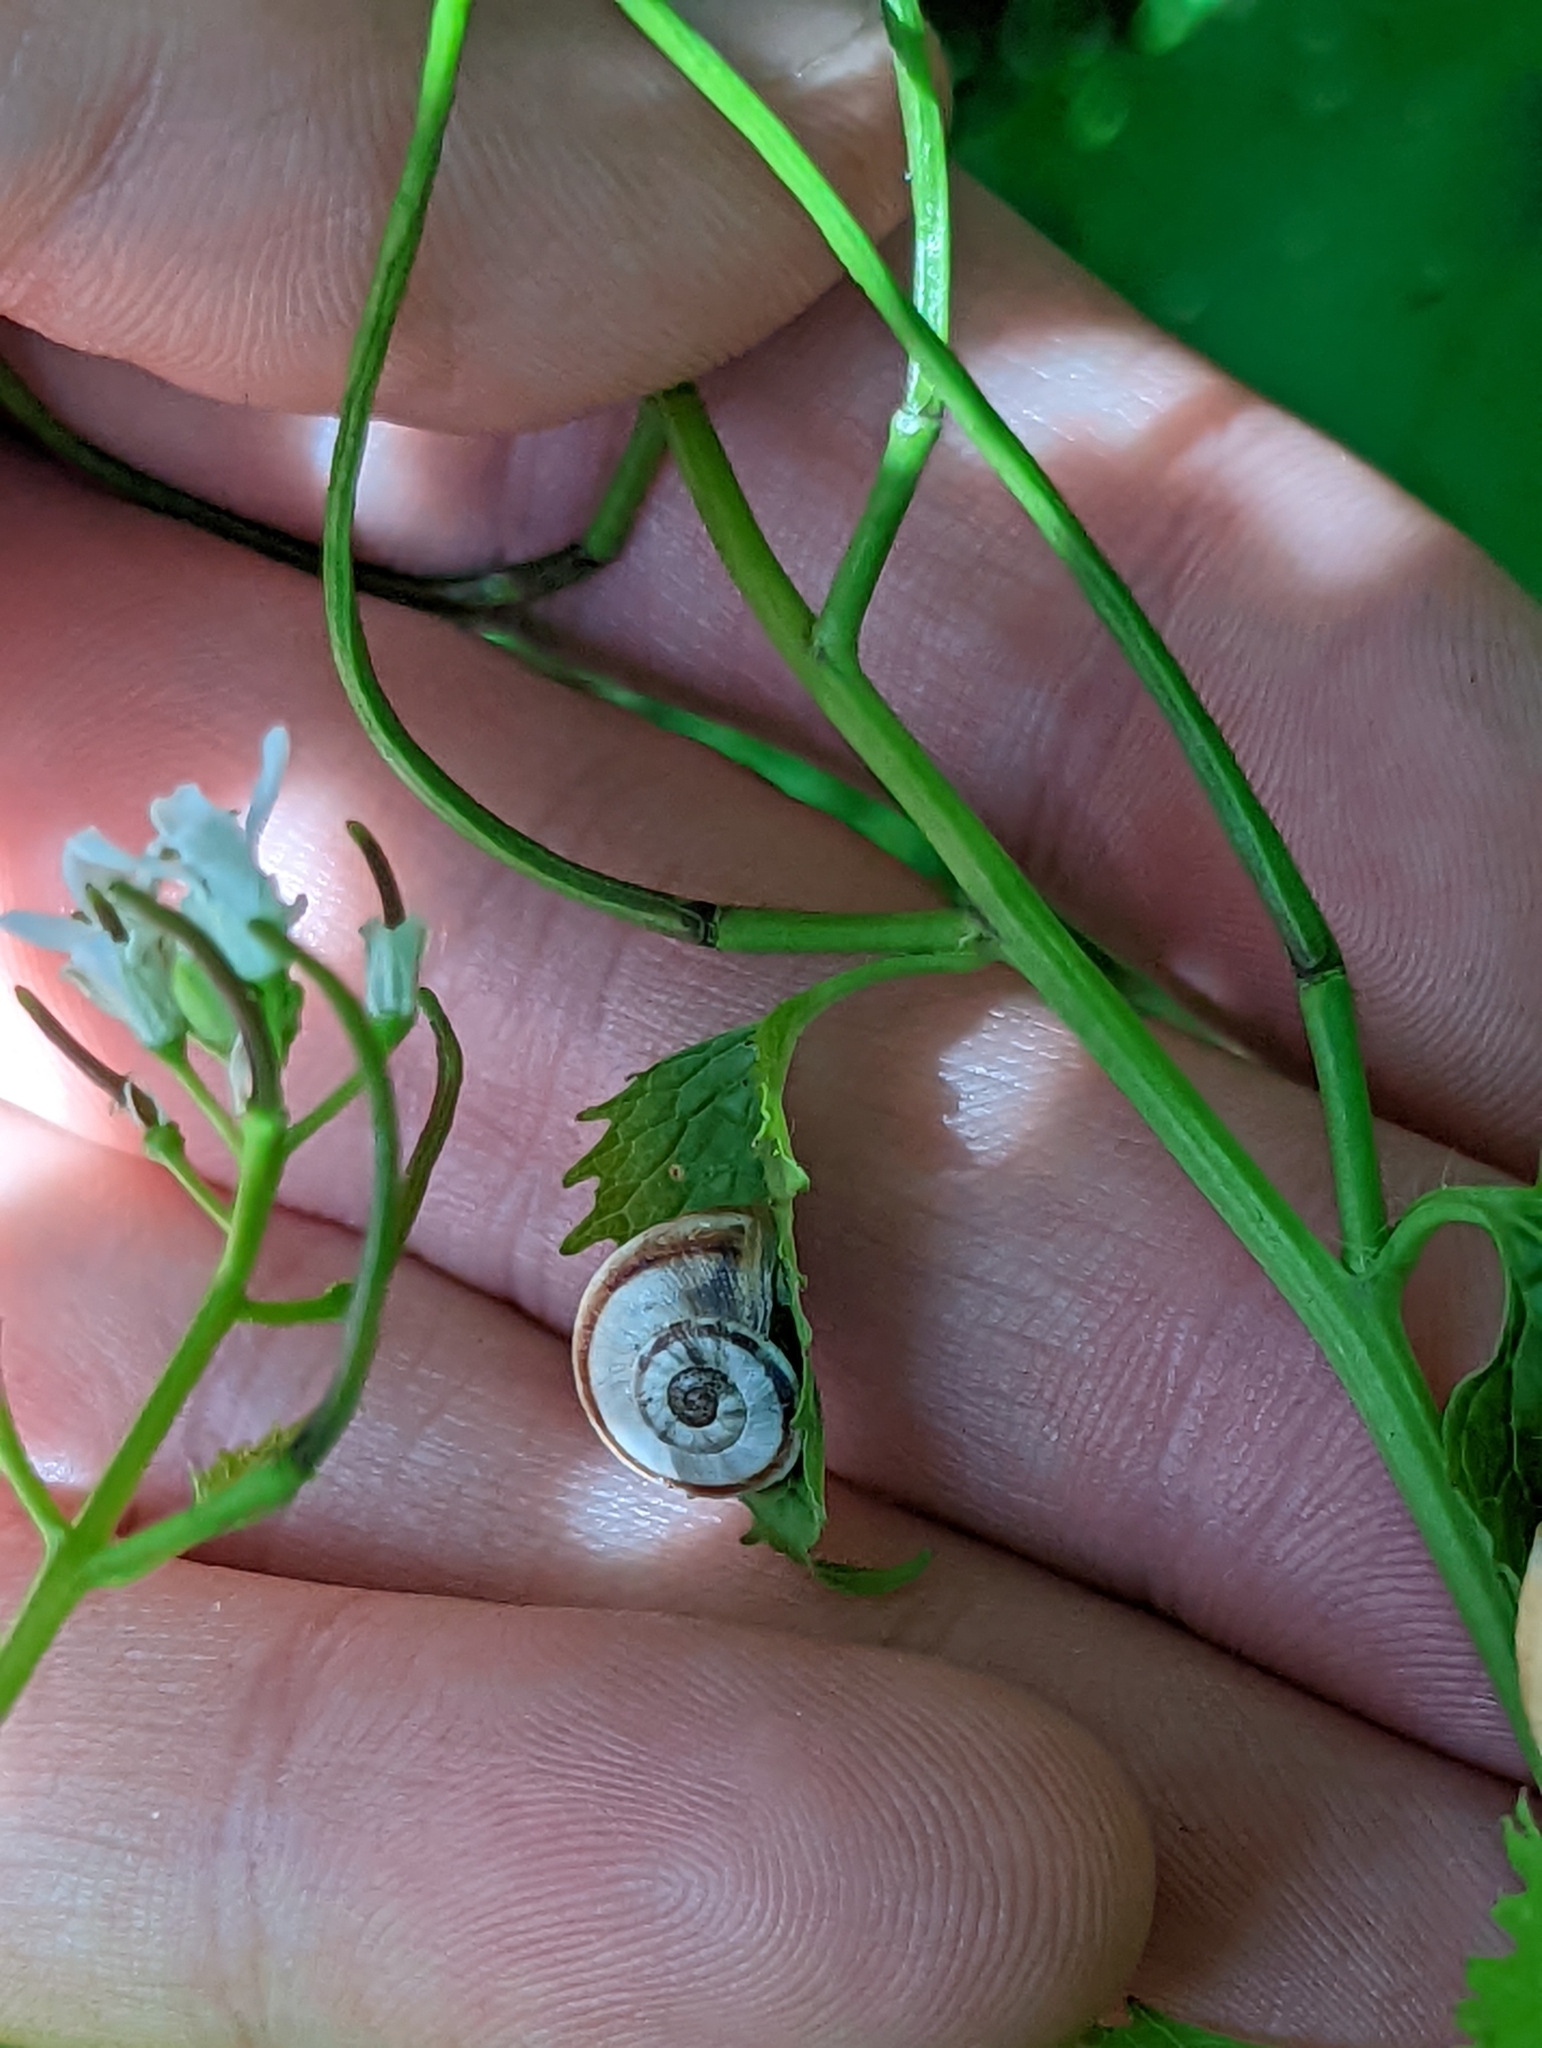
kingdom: Animalia
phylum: Mollusca
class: Gastropoda
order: Stylommatophora
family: Helicidae
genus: Theba
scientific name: Theba pisana
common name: White snail
